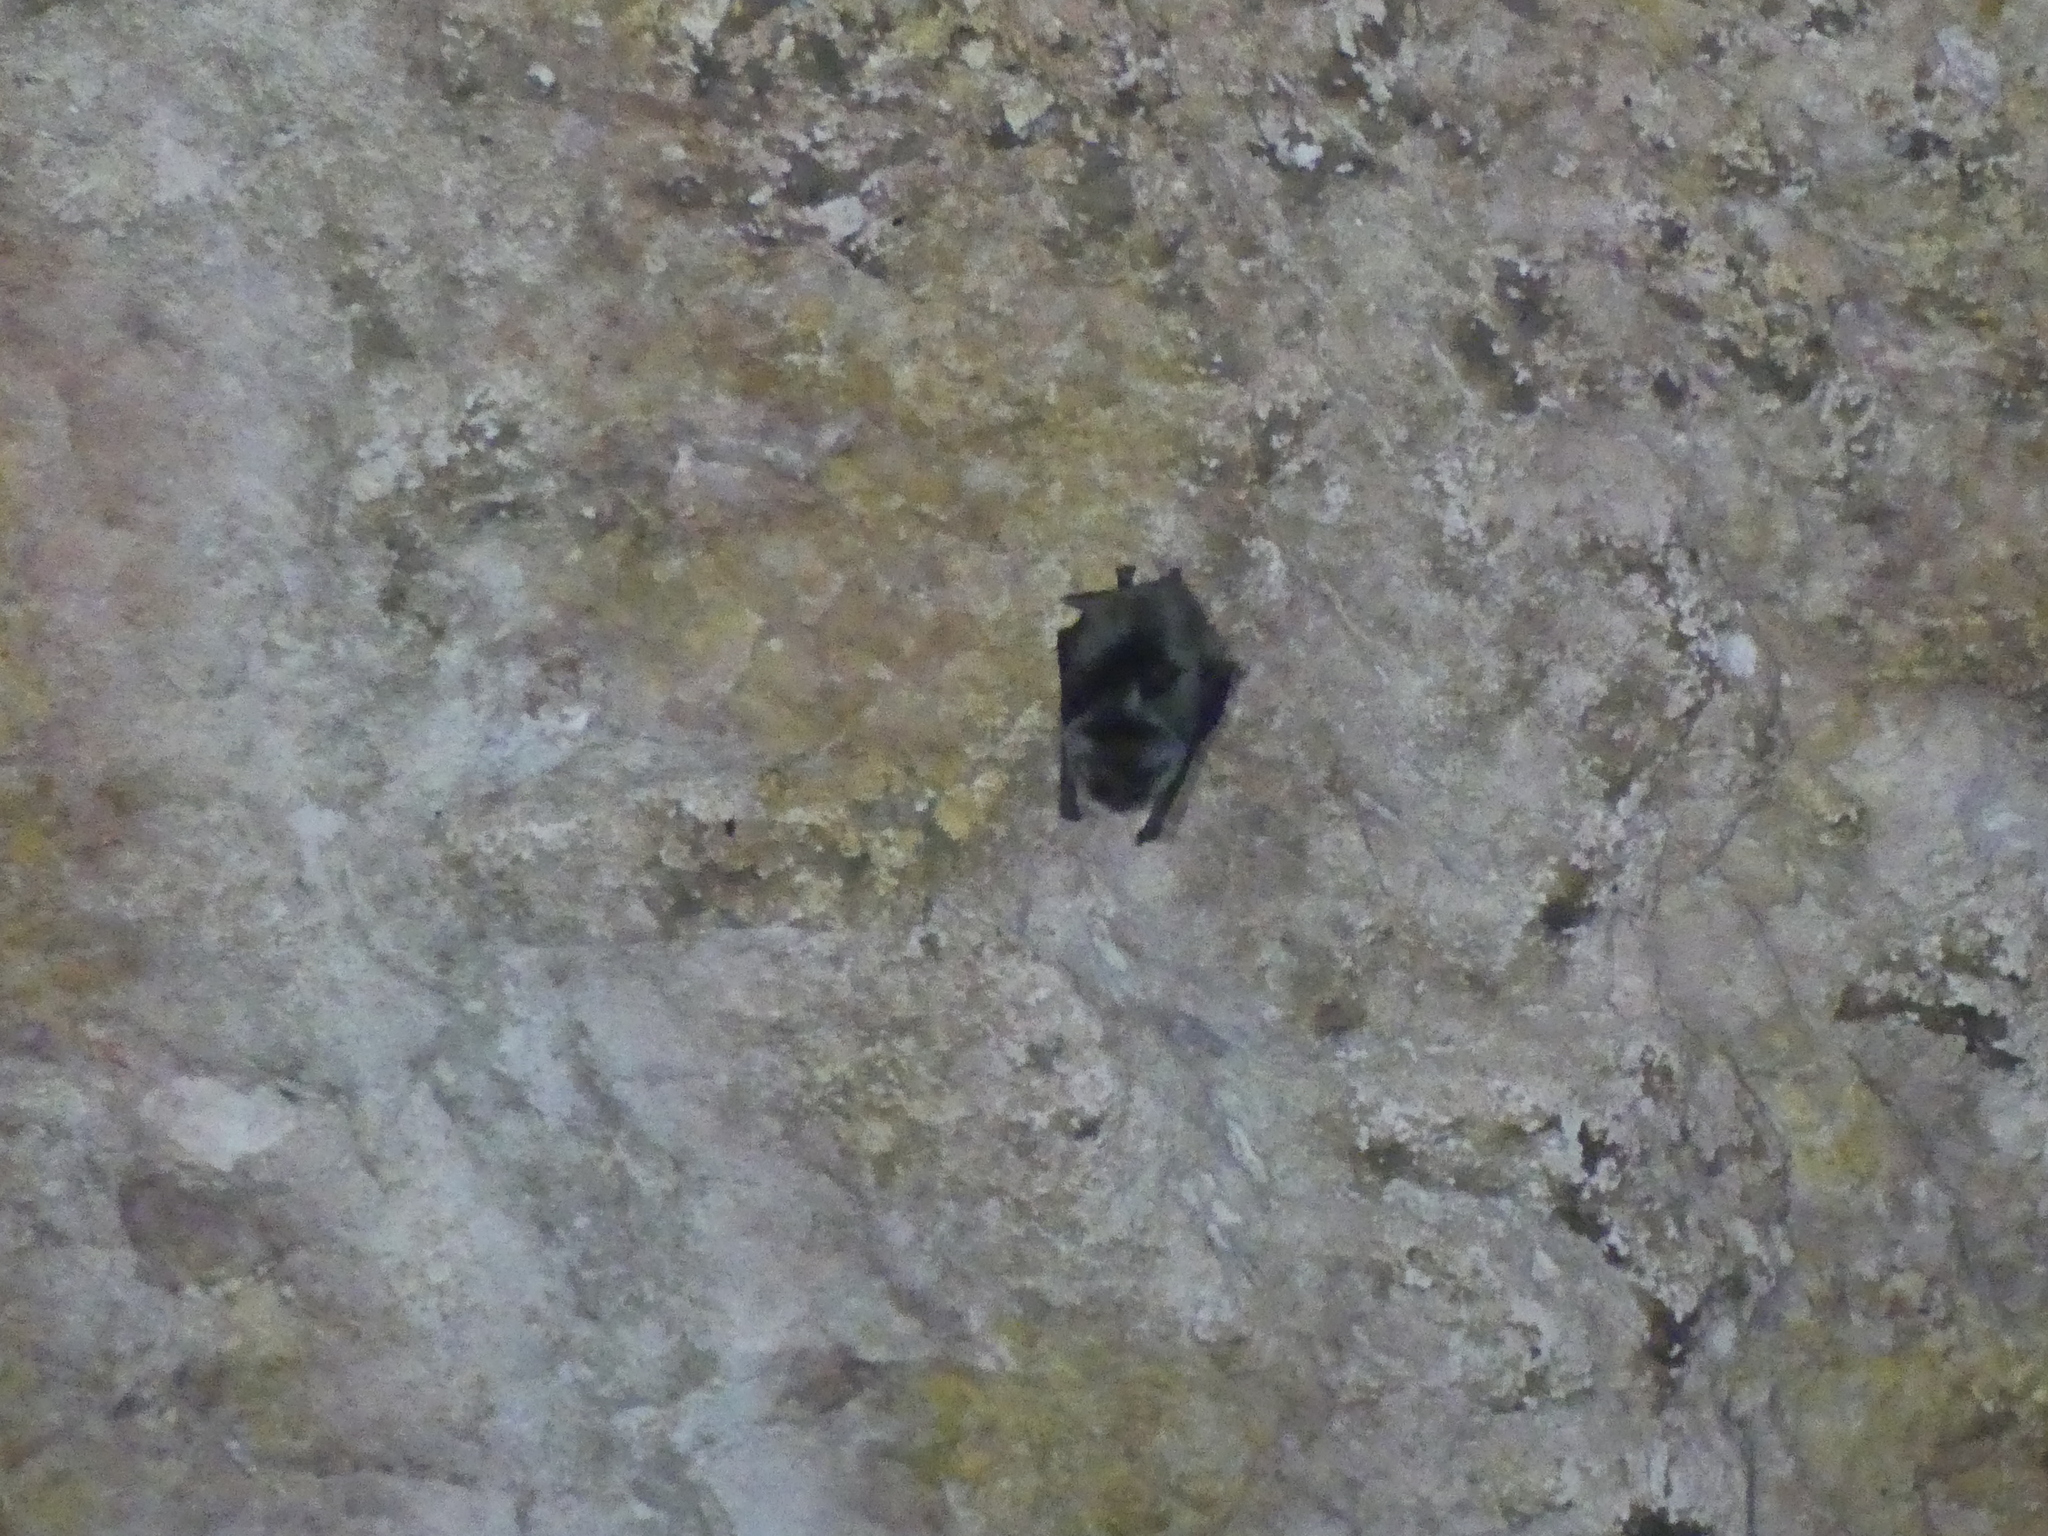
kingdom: Animalia
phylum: Chordata
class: Mammalia
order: Chiroptera
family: Miniopteridae
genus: Miniopterus
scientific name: Miniopterus schreibersii
